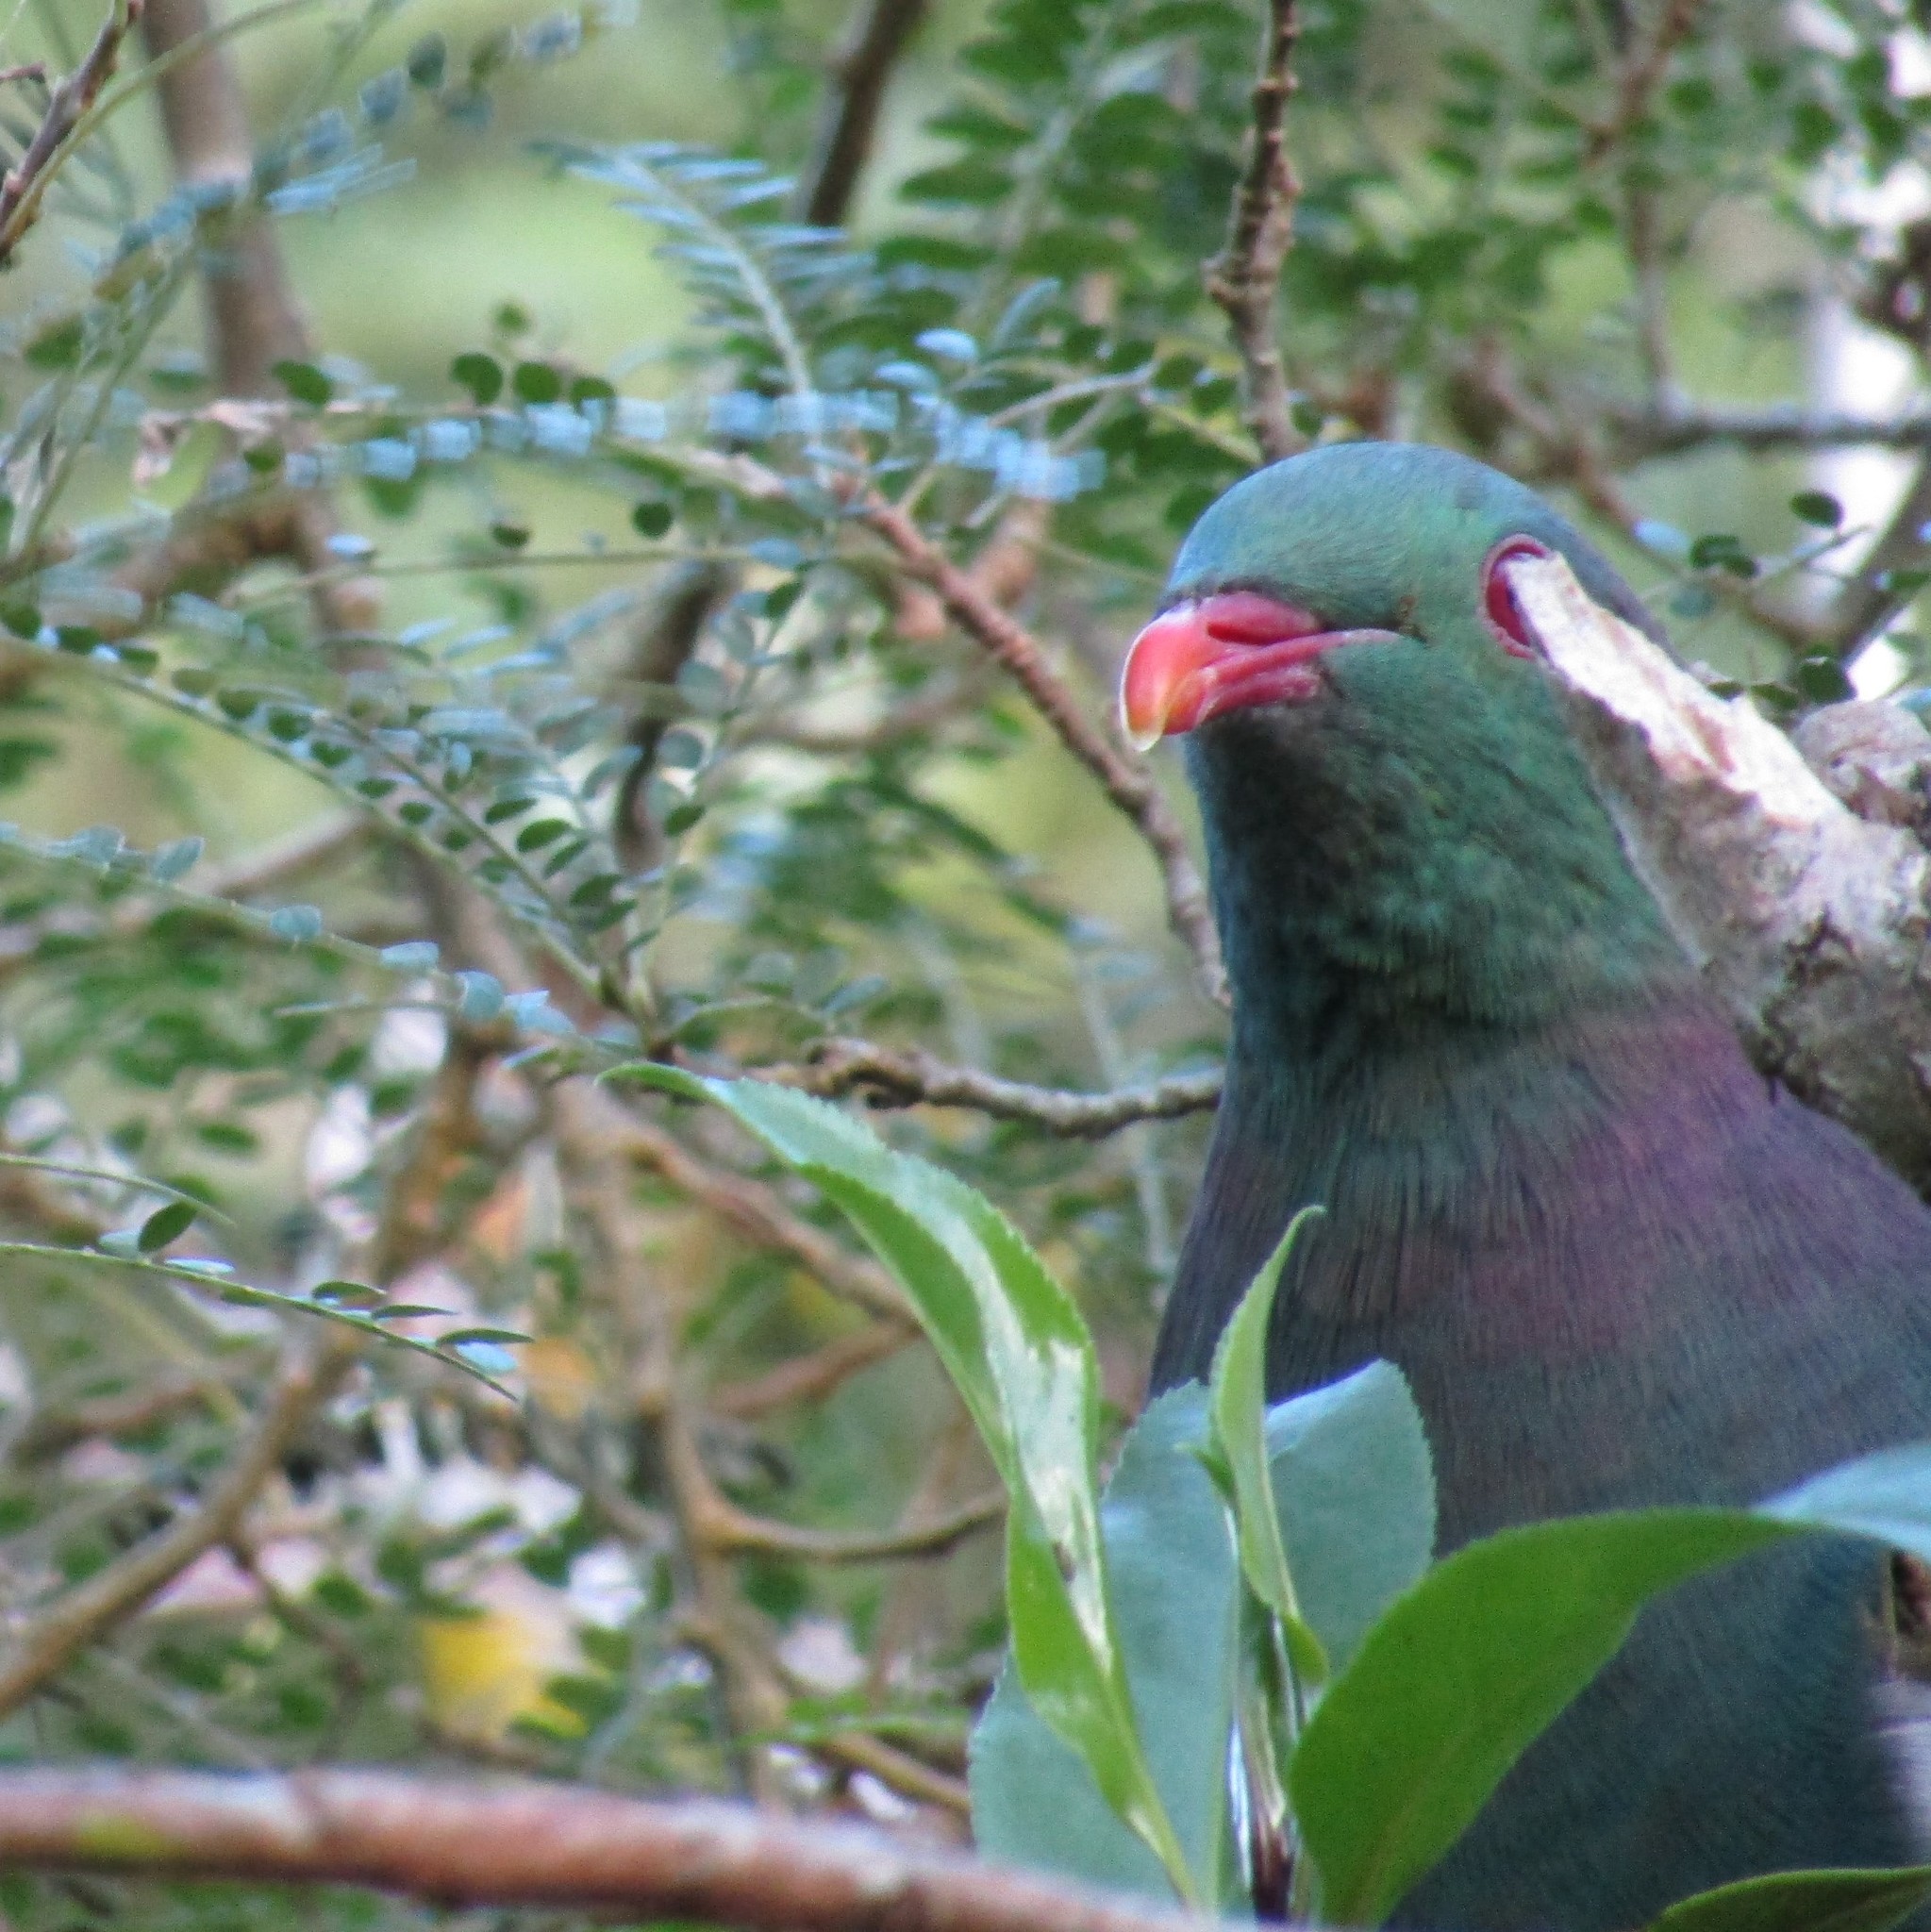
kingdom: Animalia
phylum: Chordata
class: Aves
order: Columbiformes
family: Columbidae
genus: Hemiphaga
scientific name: Hemiphaga novaeseelandiae
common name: New zealand pigeon
